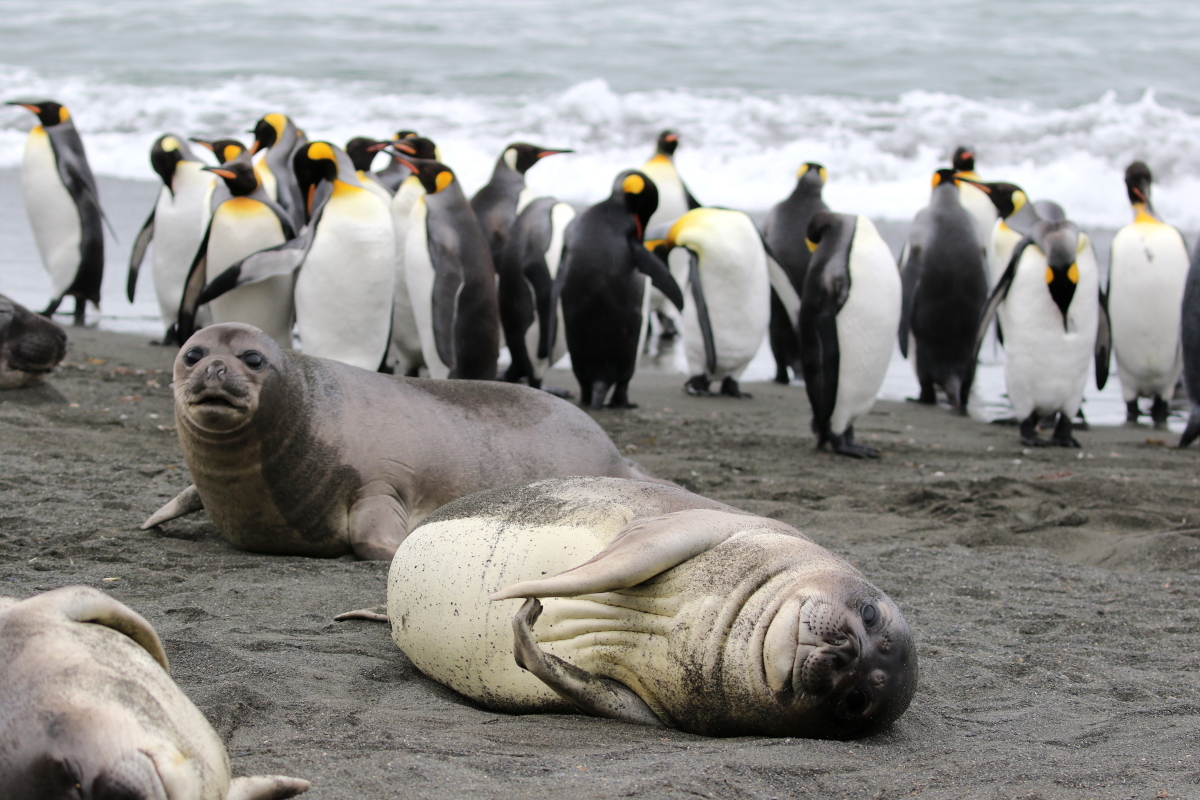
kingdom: Animalia
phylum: Chordata
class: Mammalia
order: Carnivora
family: Phocidae
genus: Mirounga
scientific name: Mirounga leonina
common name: Southern elephant seal
